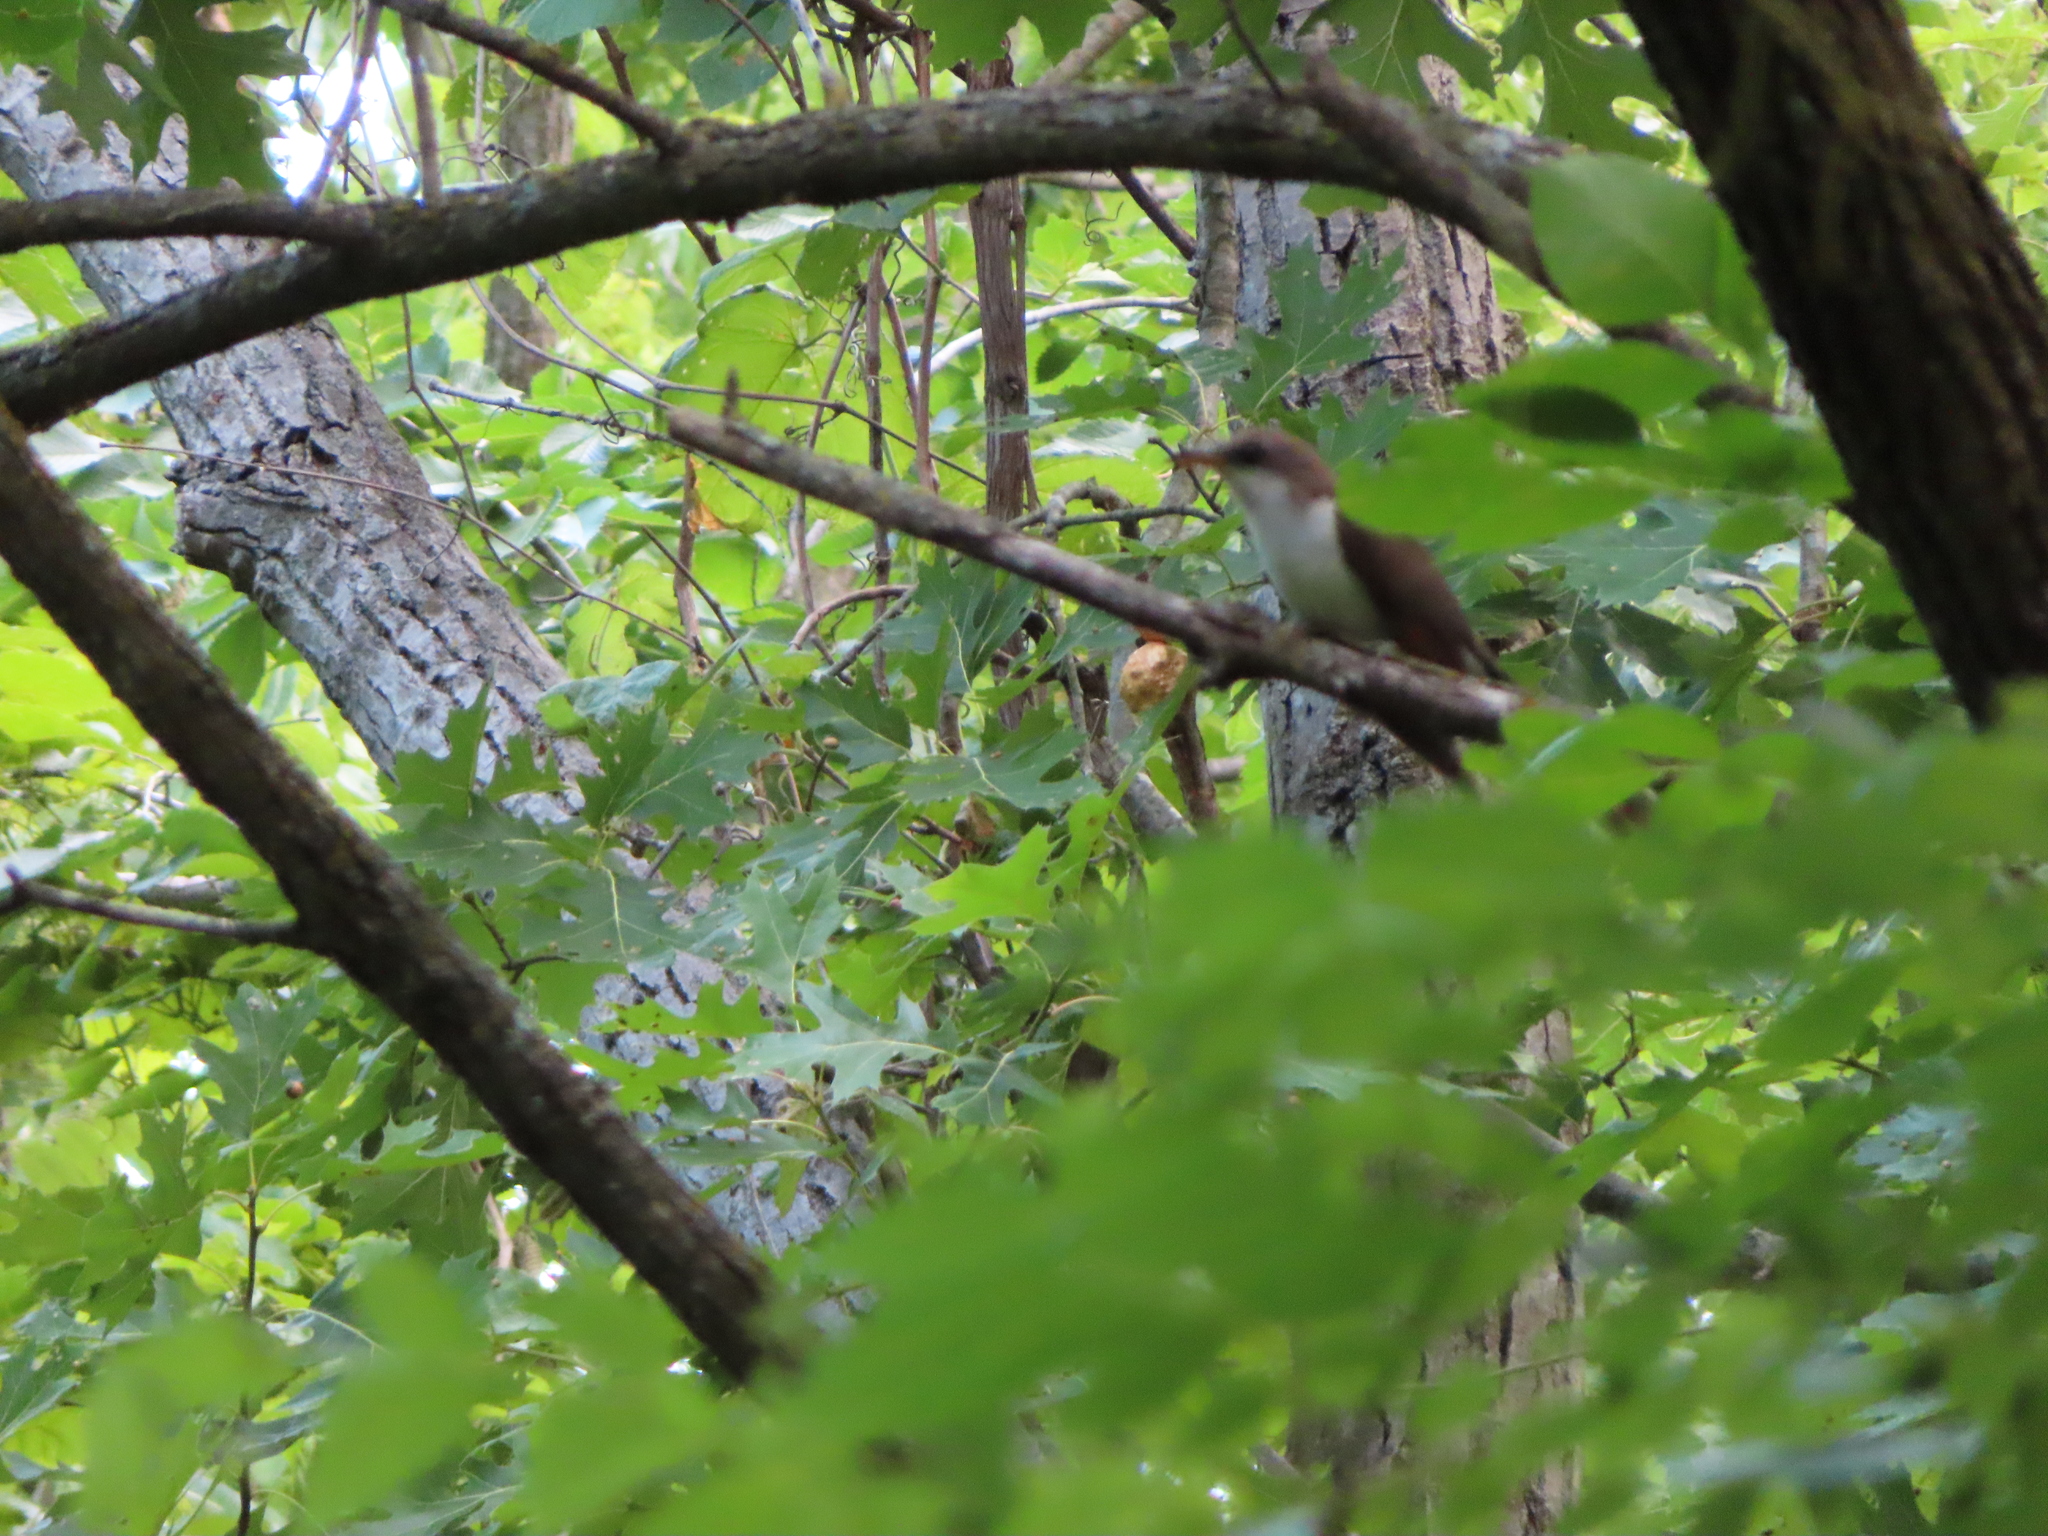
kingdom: Animalia
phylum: Chordata
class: Aves
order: Cuculiformes
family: Cuculidae
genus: Coccyzus
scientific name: Coccyzus americanus
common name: Yellow-billed cuckoo
